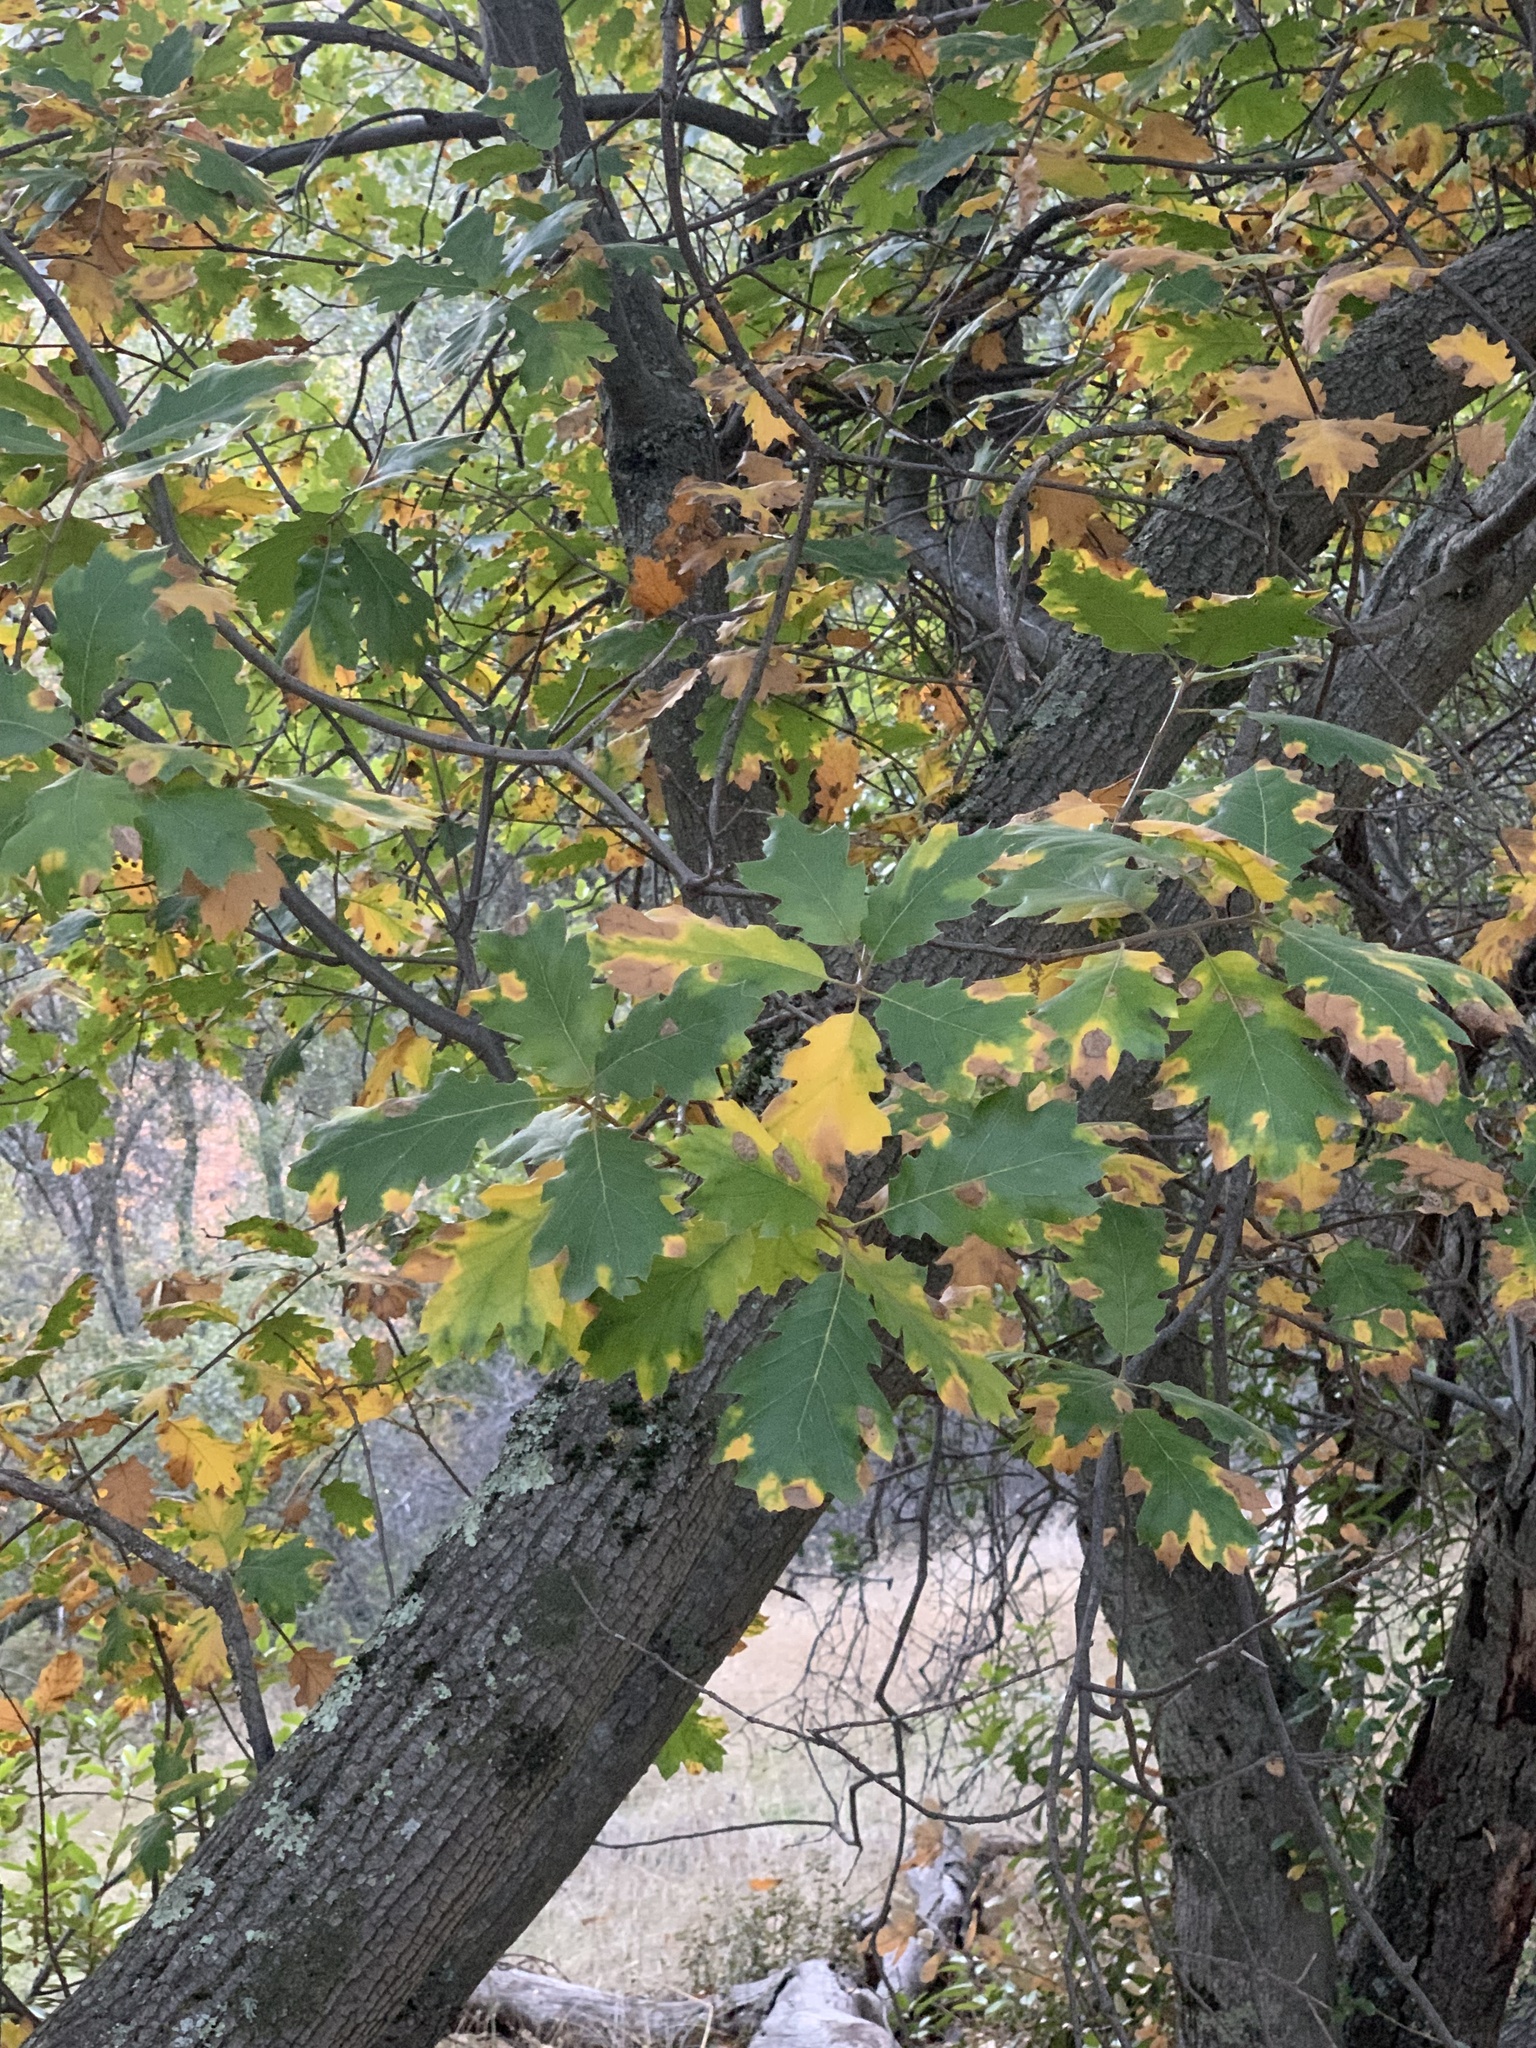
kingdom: Plantae
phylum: Tracheophyta
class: Magnoliopsida
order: Fagales
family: Fagaceae
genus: Quercus
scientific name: Quercus morehus
